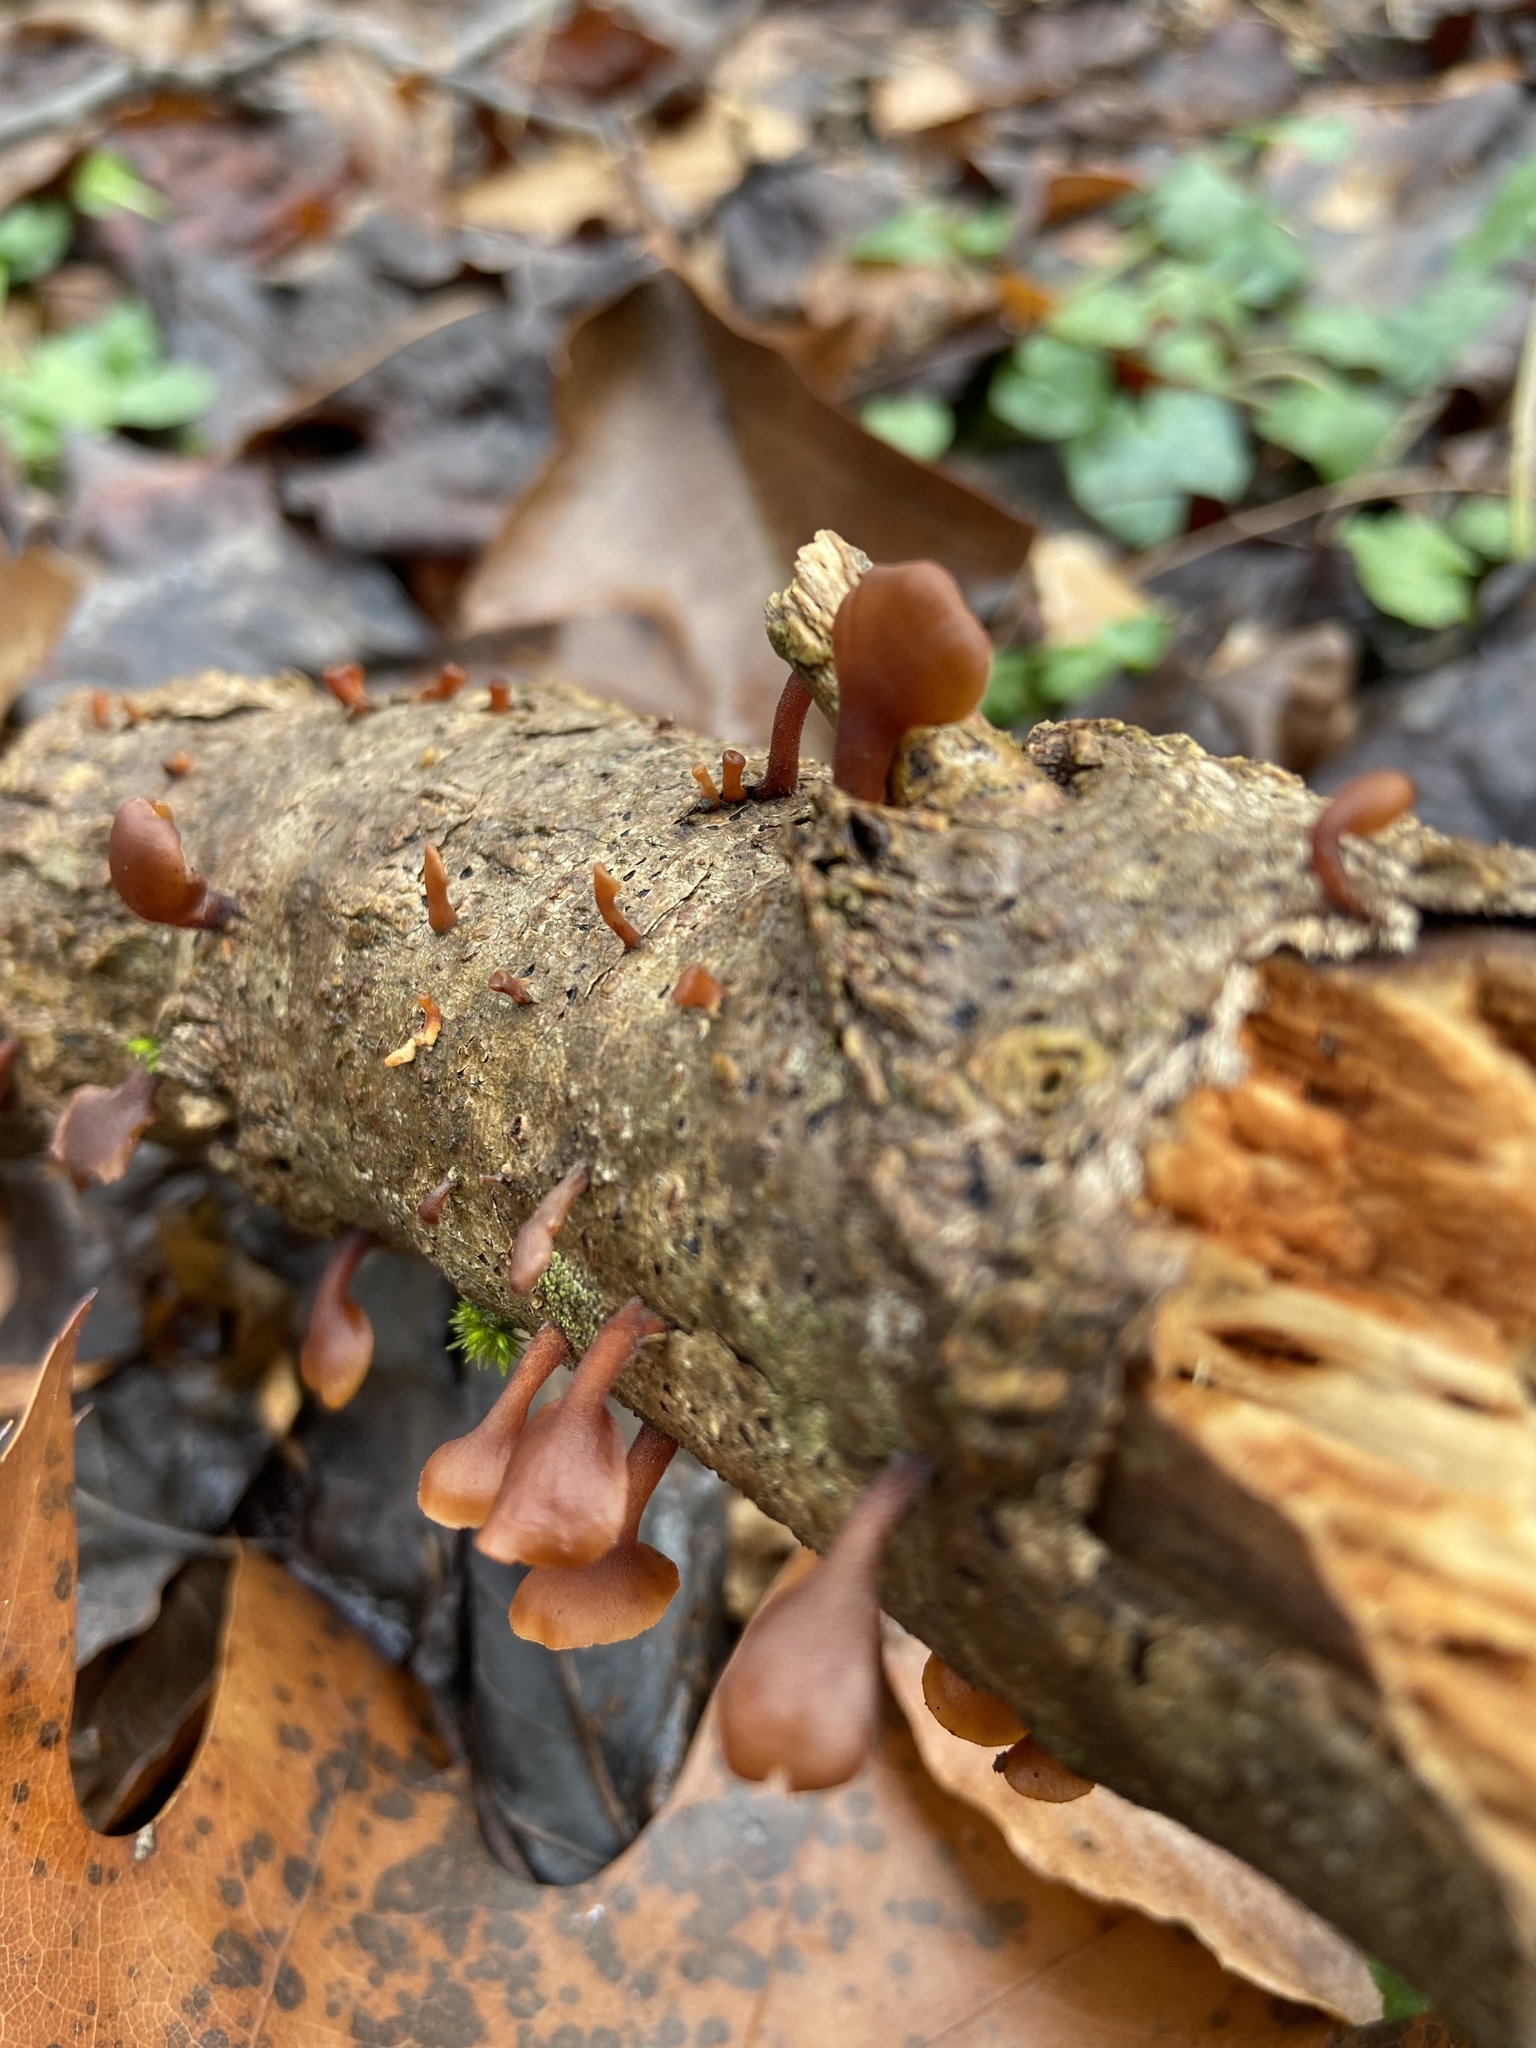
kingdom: Fungi
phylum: Basidiomycota
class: Dacrymycetes
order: Dacrymycetales
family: Dacrymycetaceae
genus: Dacryopinax
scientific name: Dacryopinax elegans
